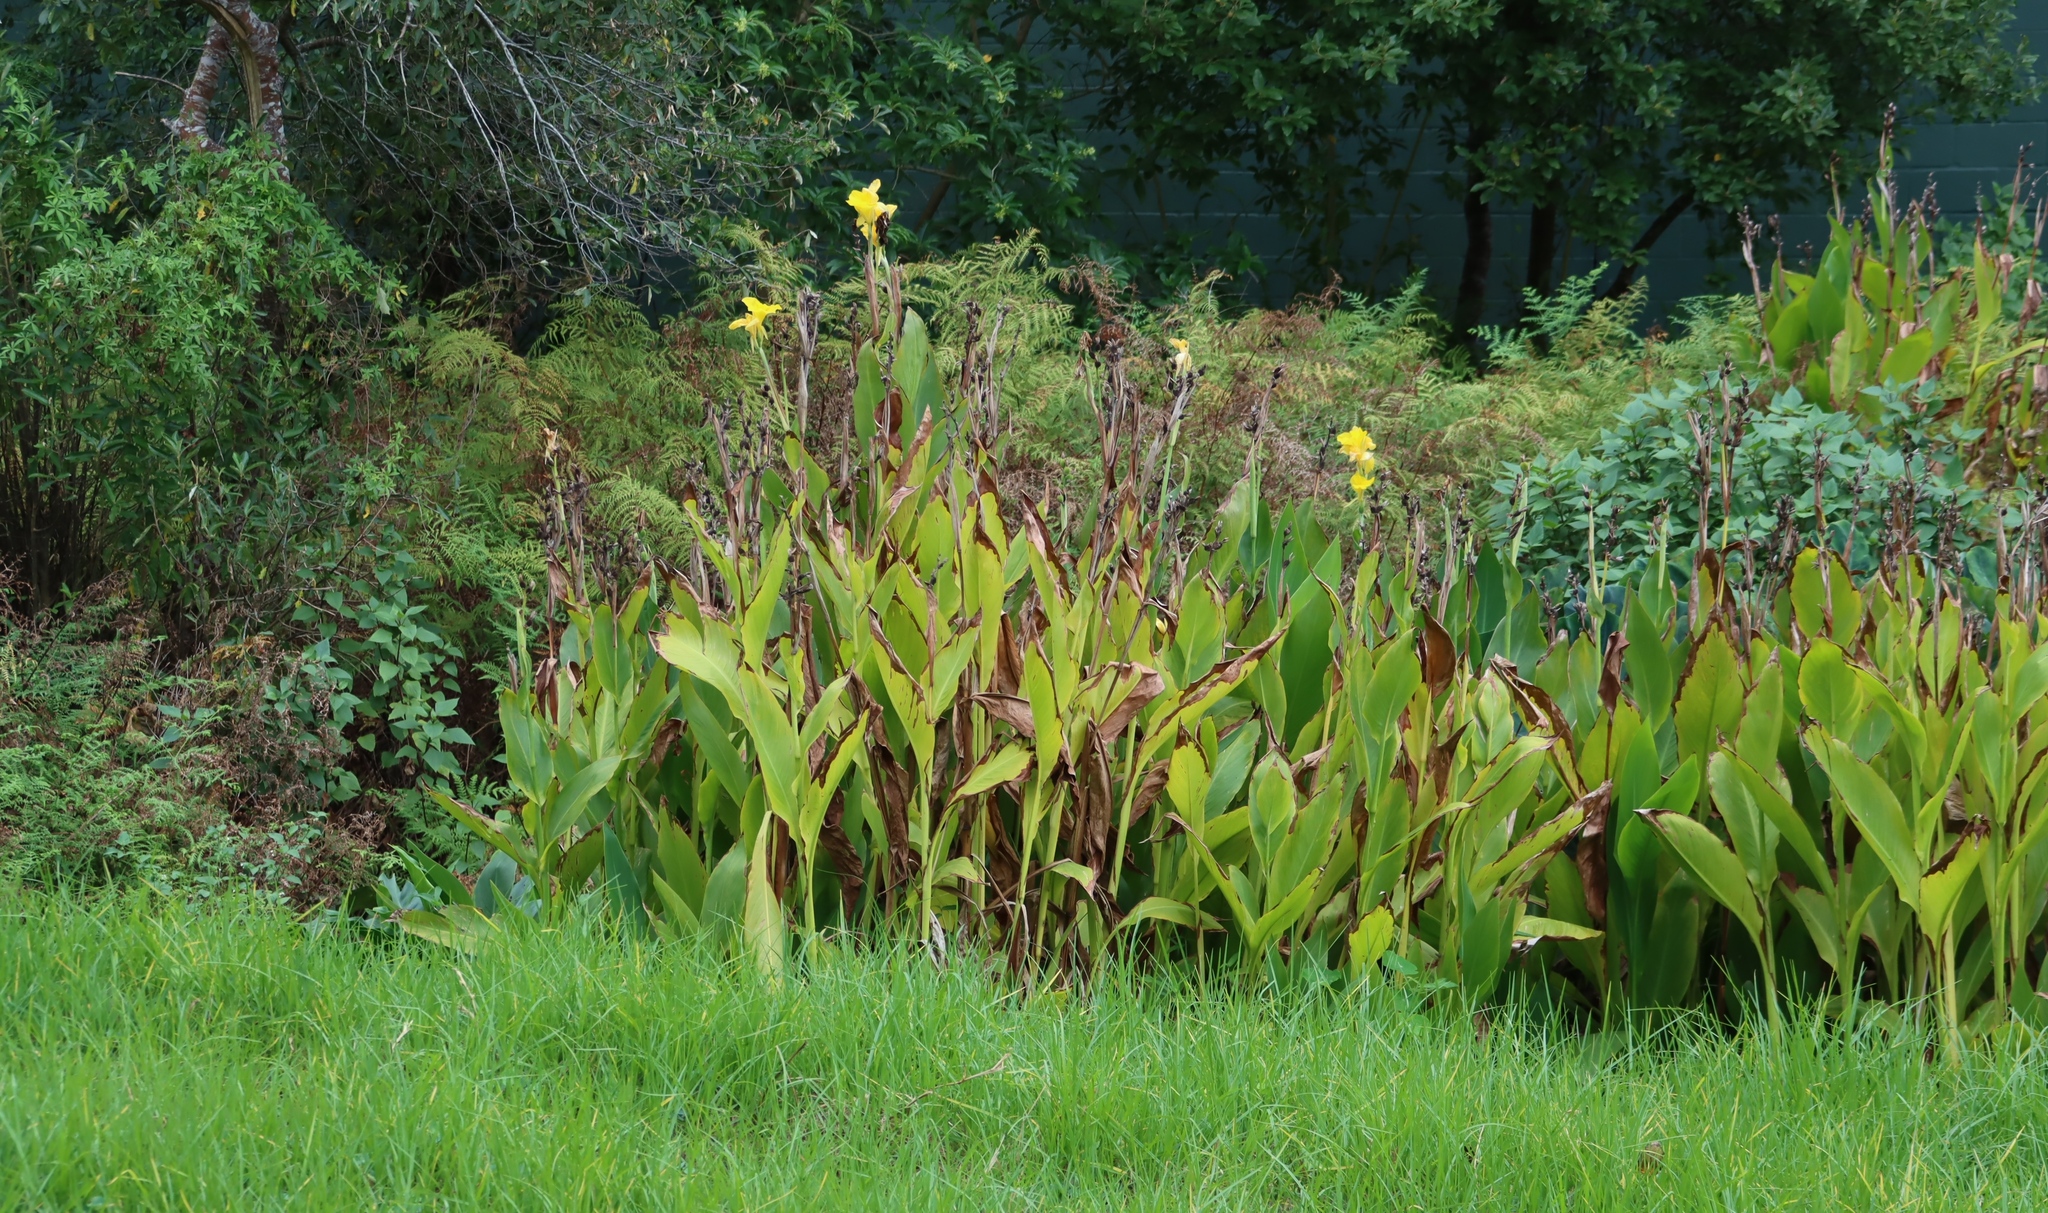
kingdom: Plantae
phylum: Tracheophyta
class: Liliopsida
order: Zingiberales
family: Cannaceae
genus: Canna
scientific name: Canna hybrida
